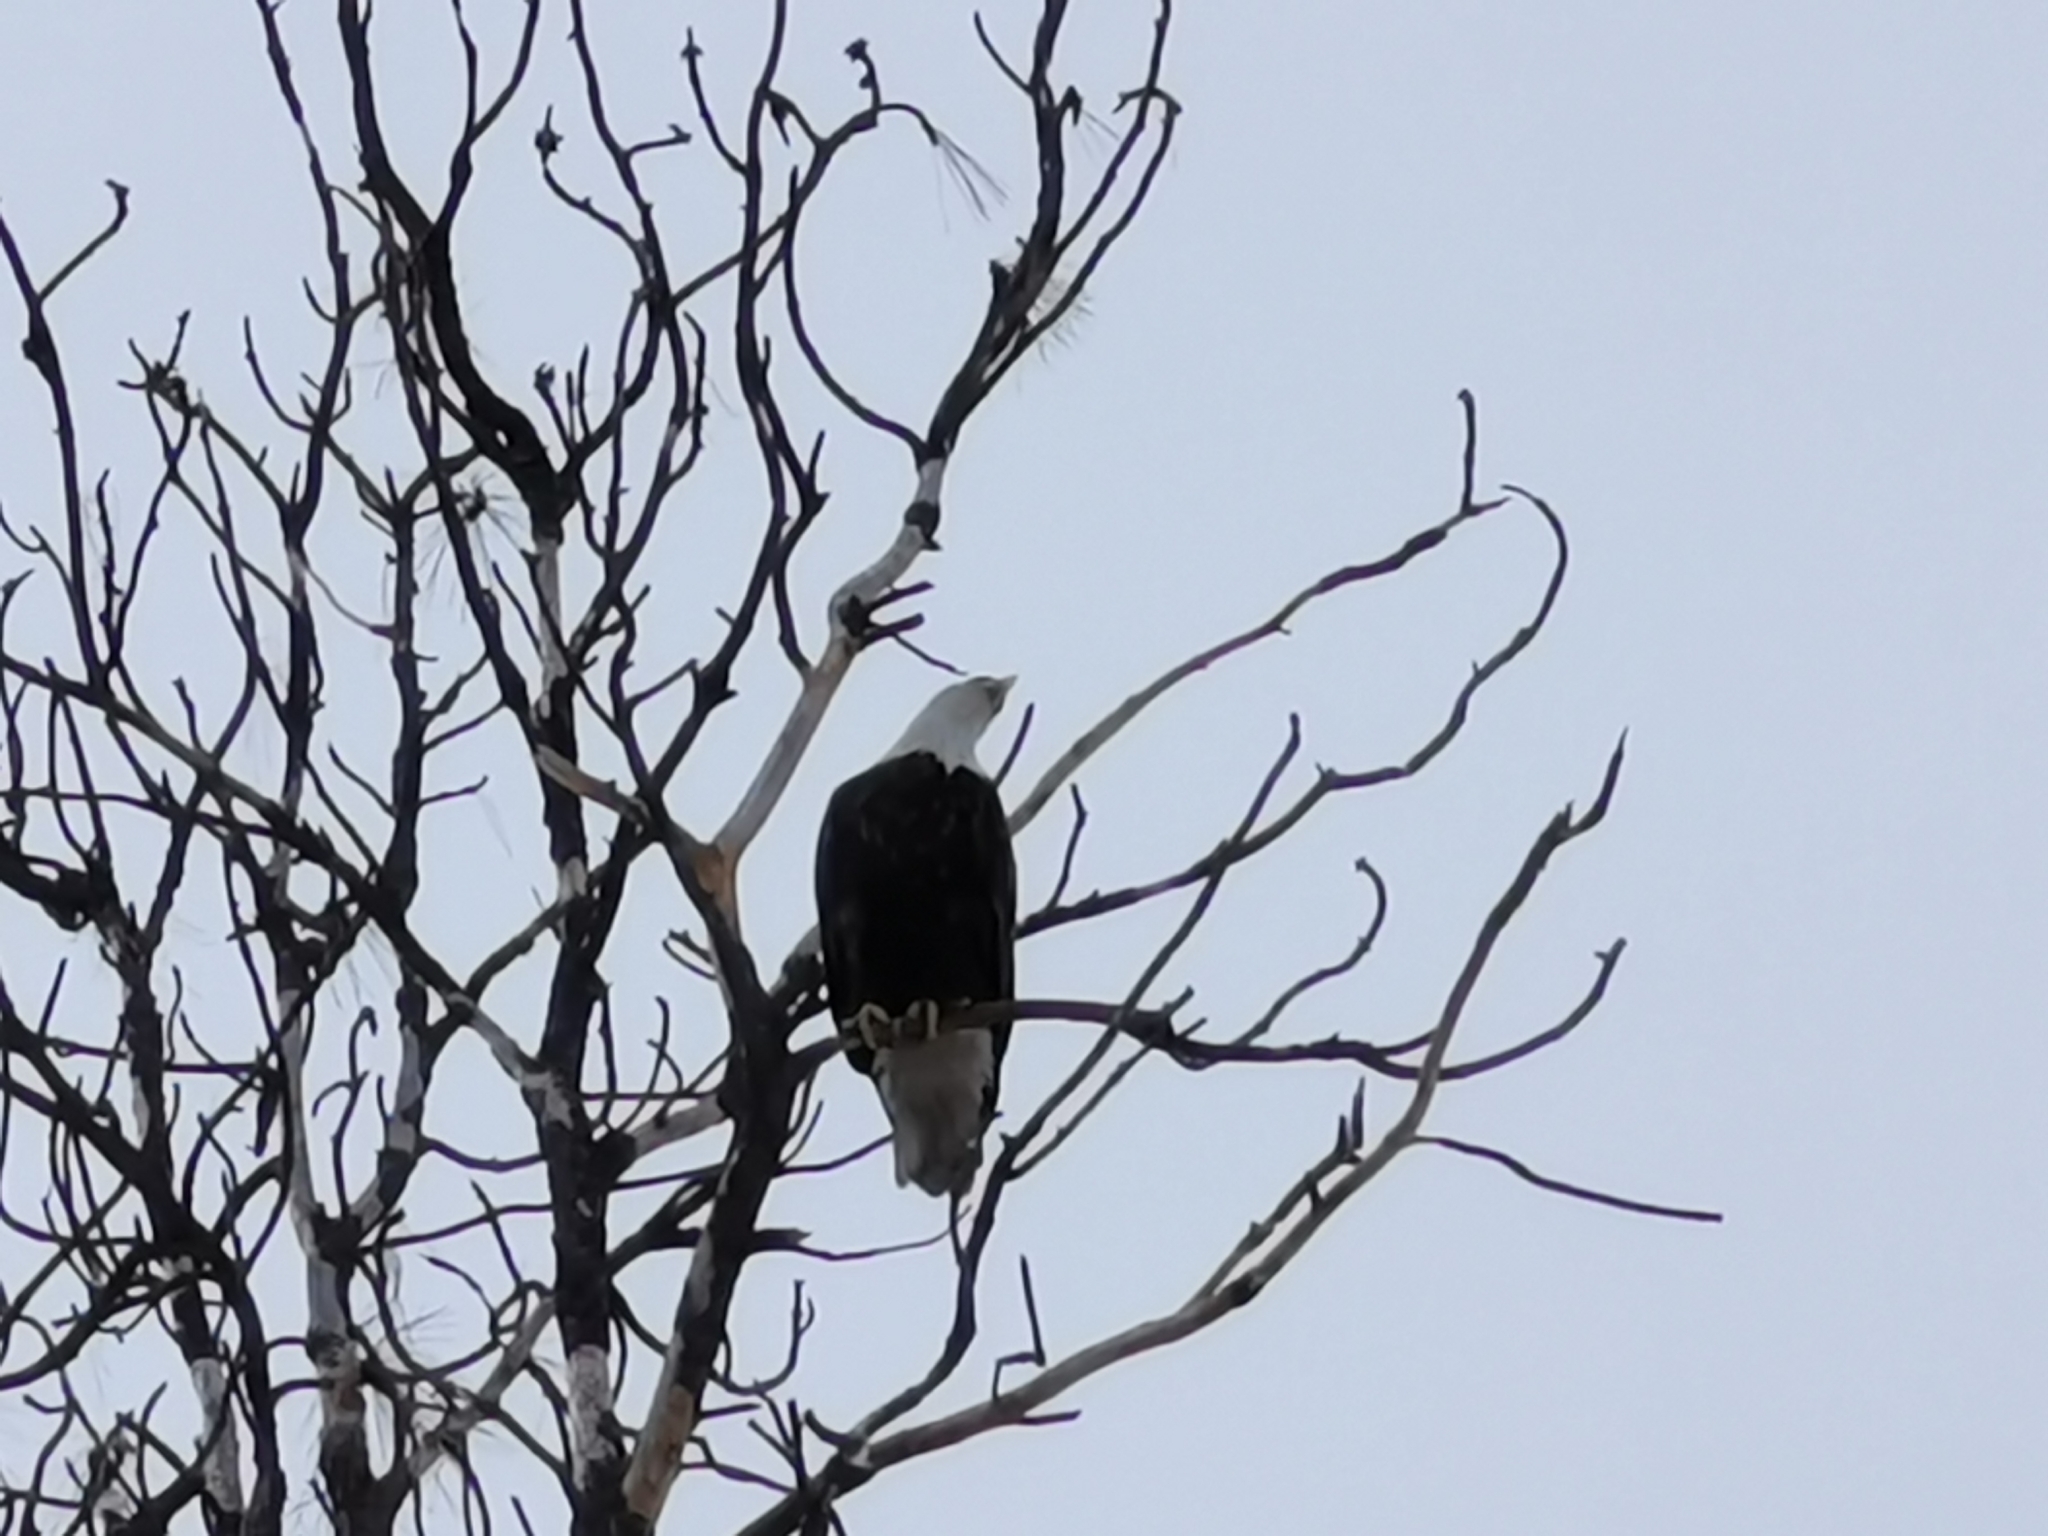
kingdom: Animalia
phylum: Chordata
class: Aves
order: Accipitriformes
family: Accipitridae
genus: Haliaeetus
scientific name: Haliaeetus leucocephalus
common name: Bald eagle
